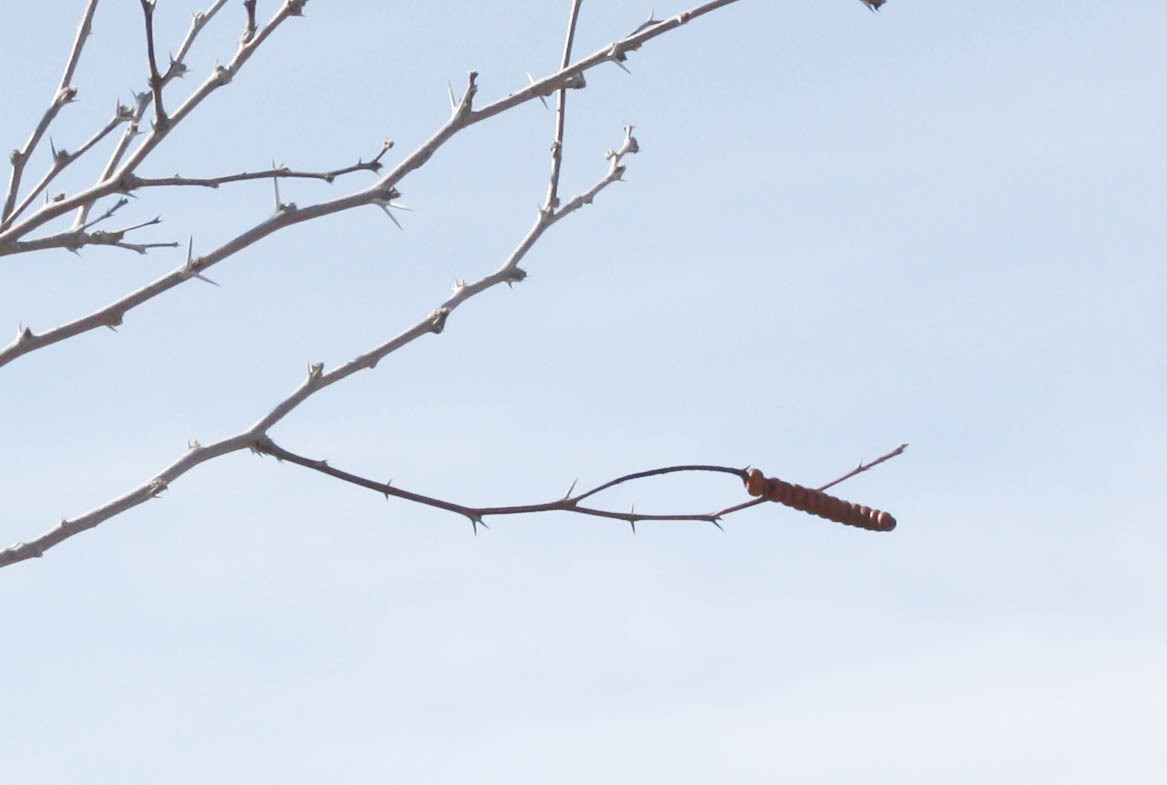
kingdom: Plantae
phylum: Tracheophyta
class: Magnoliopsida
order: Fabales
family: Fabaceae
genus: Prosopis
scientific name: Prosopis pubescens
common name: Screw-bean
